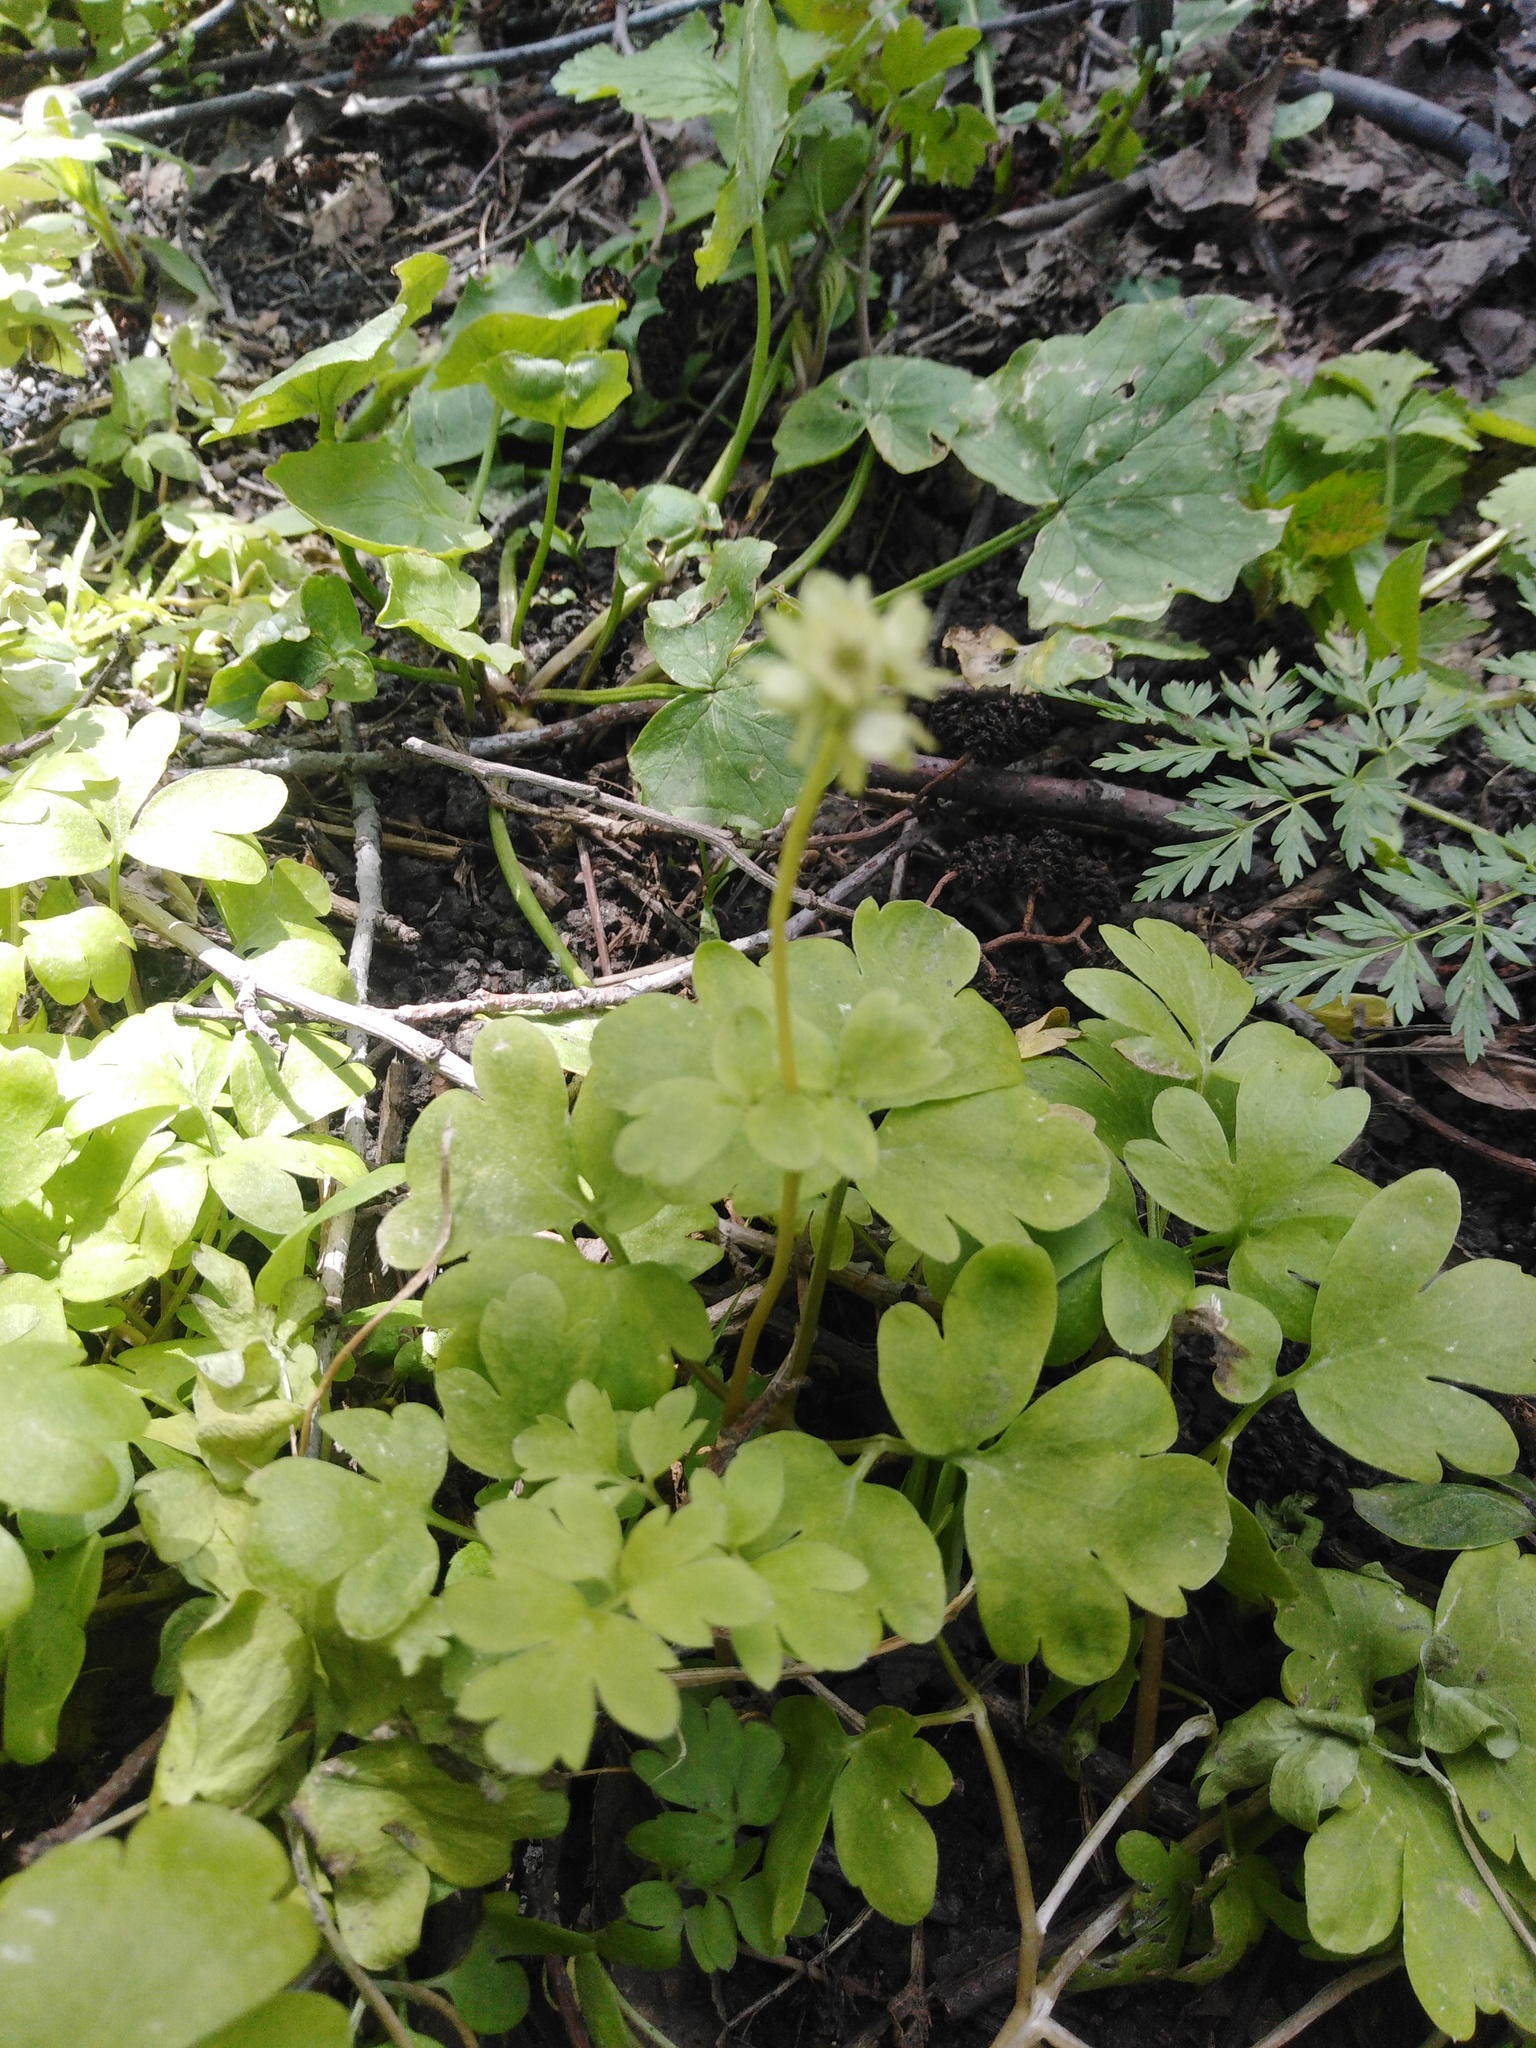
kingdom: Plantae
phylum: Tracheophyta
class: Magnoliopsida
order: Dipsacales
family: Viburnaceae
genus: Adoxa
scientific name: Adoxa moschatellina
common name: Moschatel
